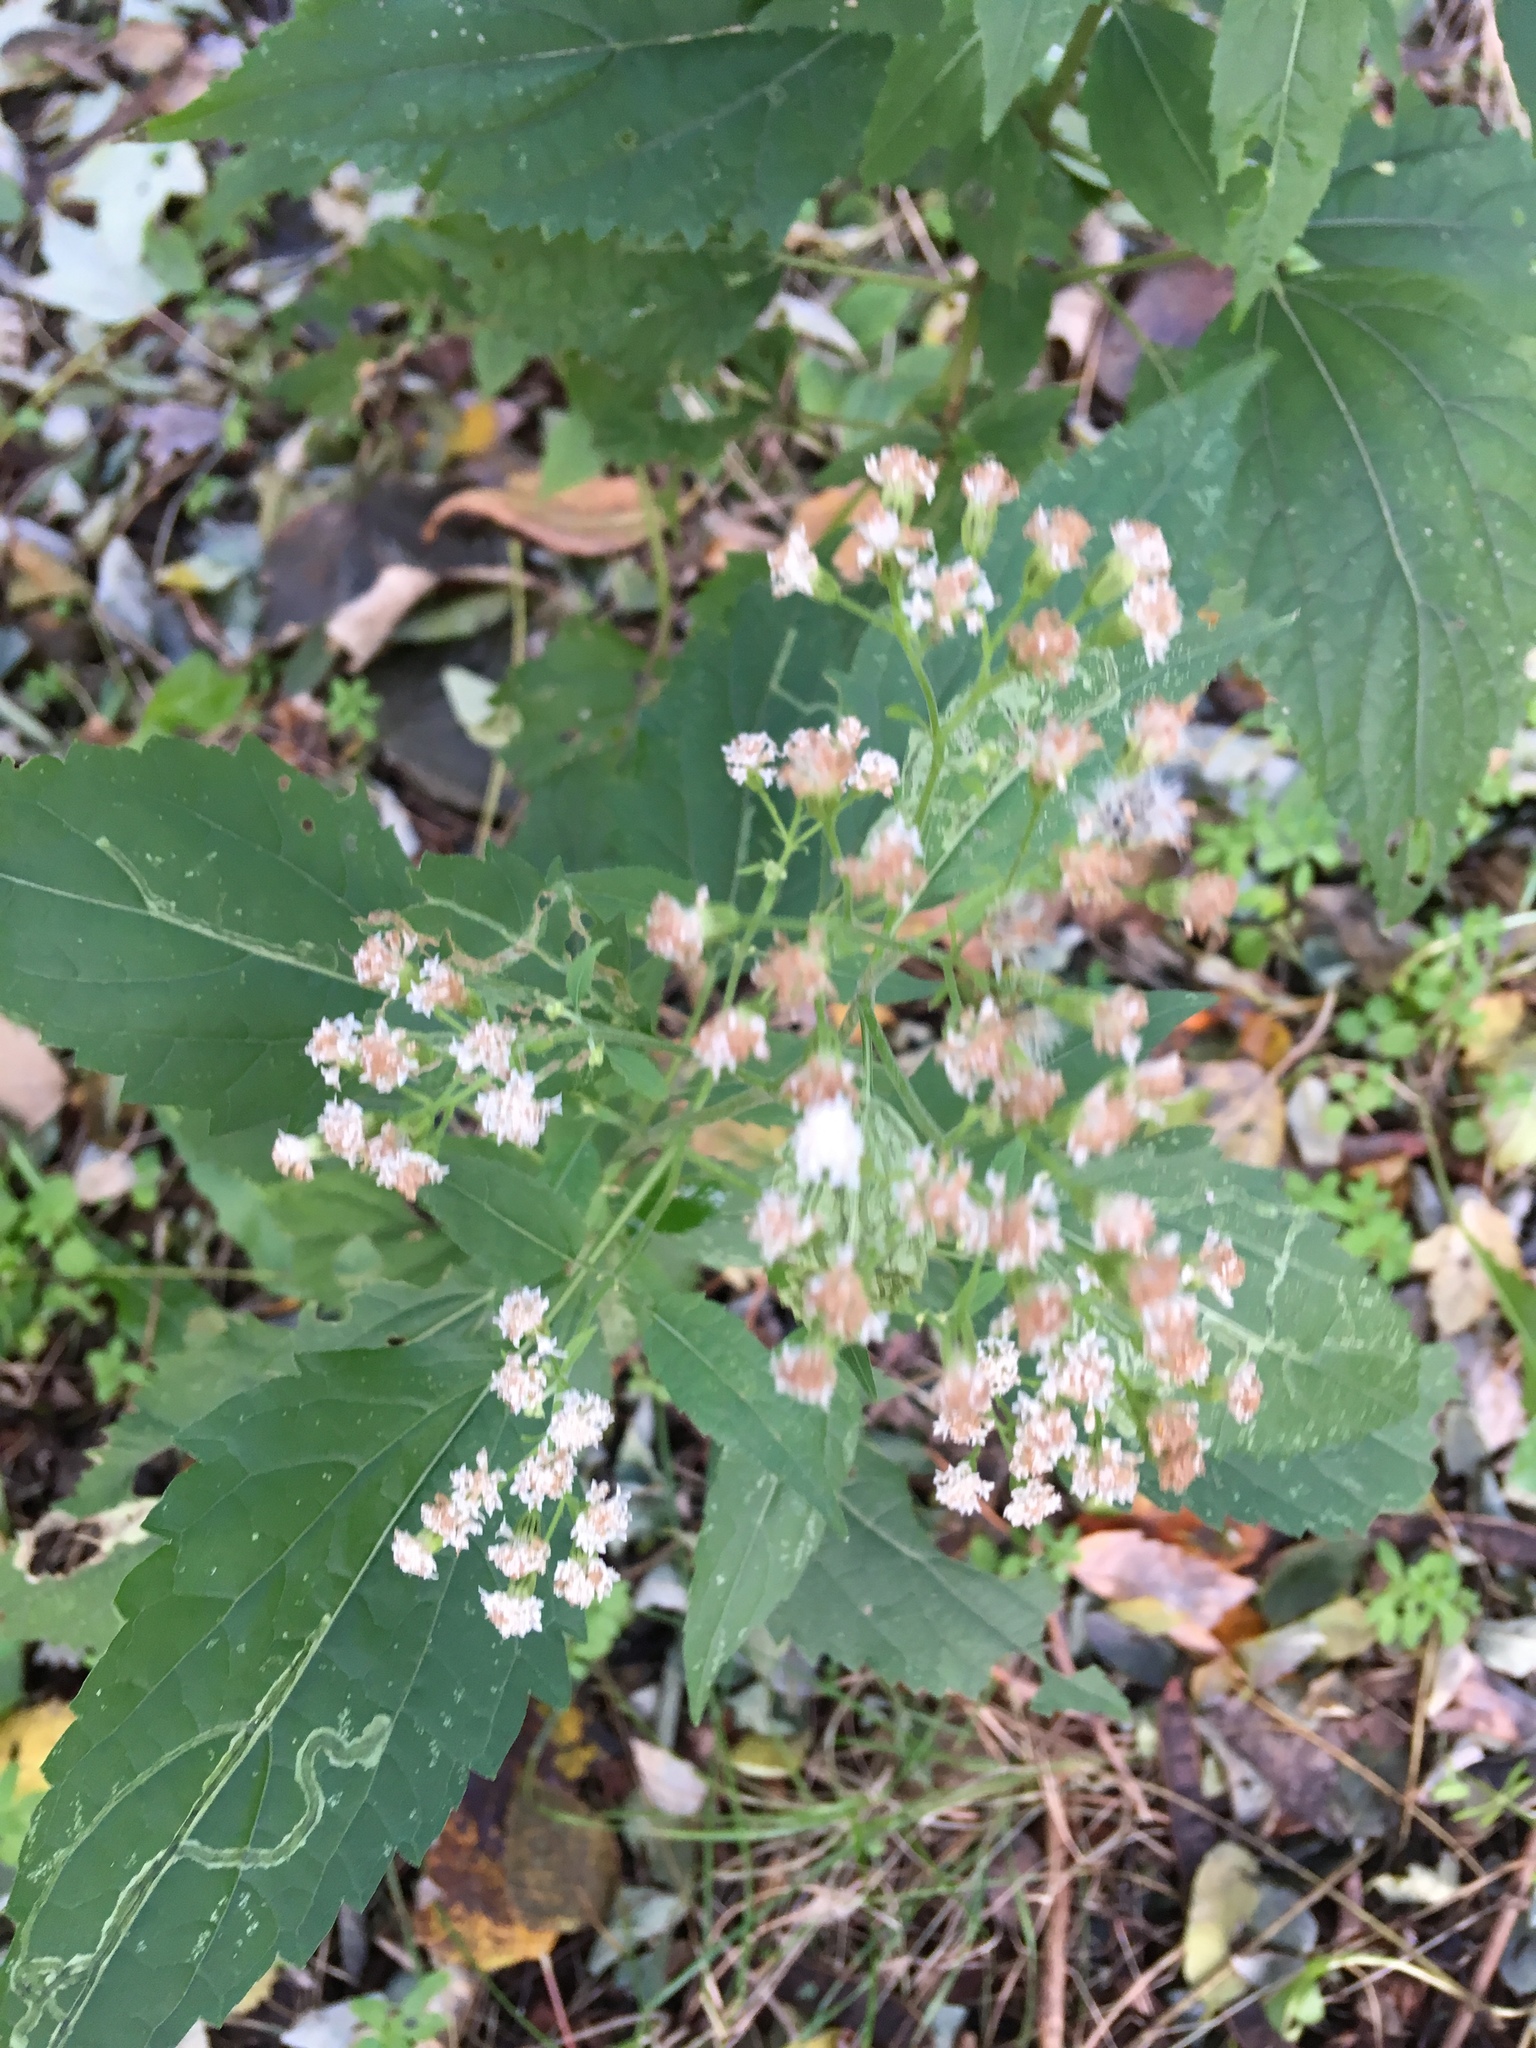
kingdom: Plantae
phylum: Tracheophyta
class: Magnoliopsida
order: Asterales
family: Asteraceae
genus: Ageratina
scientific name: Ageratina altissima
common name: White snakeroot
